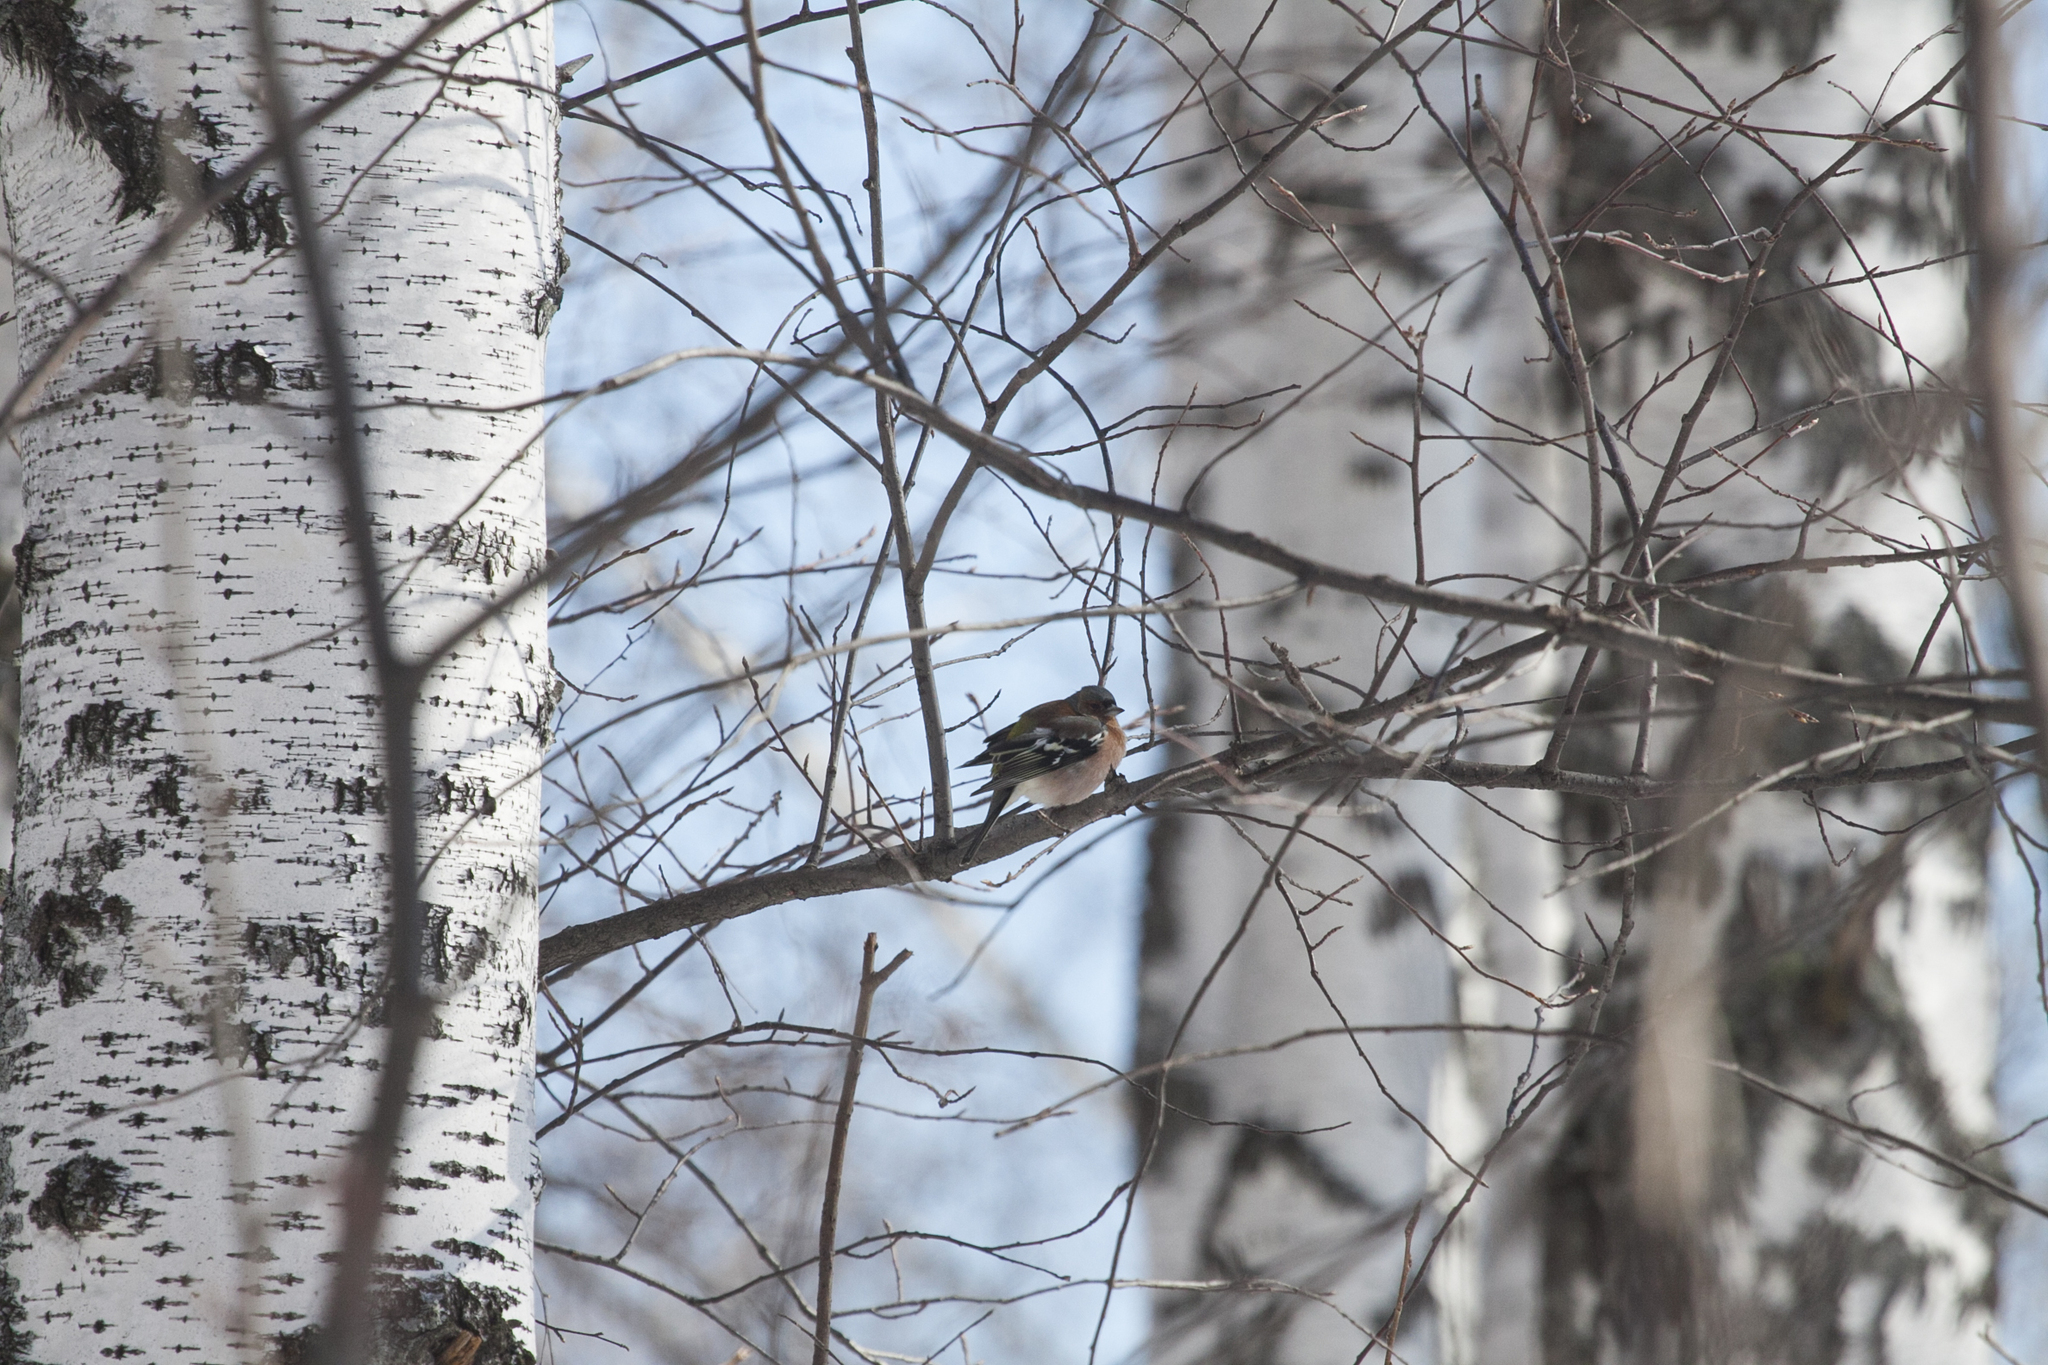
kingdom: Animalia
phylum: Chordata
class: Aves
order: Passeriformes
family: Fringillidae
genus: Fringilla
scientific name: Fringilla coelebs
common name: Common chaffinch
